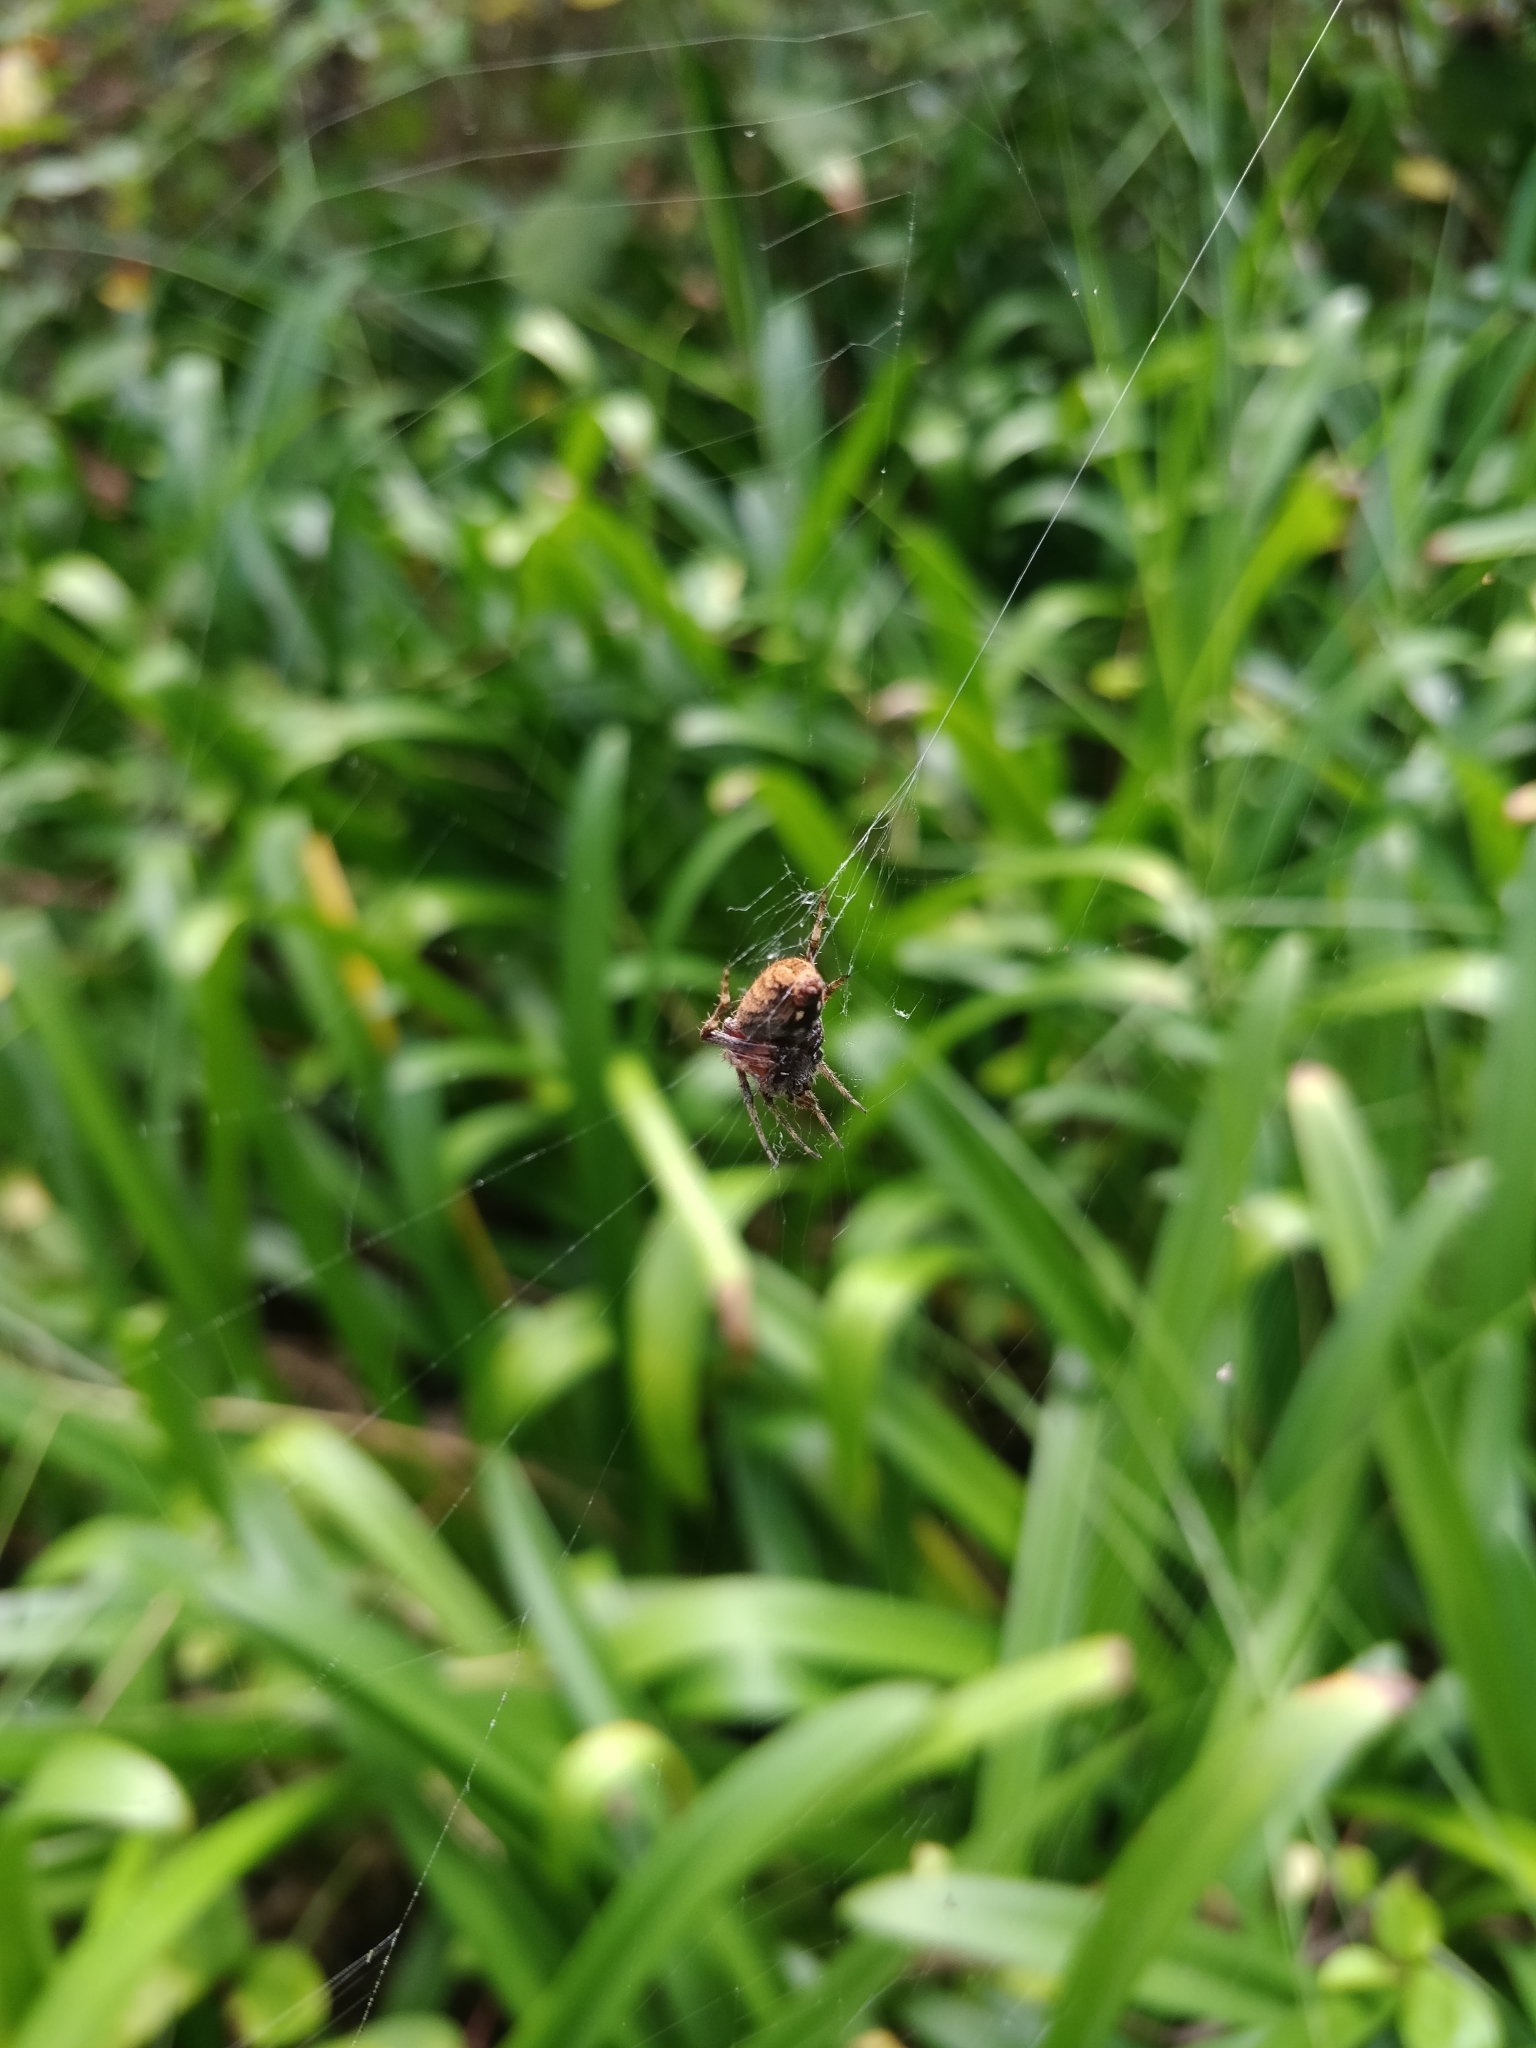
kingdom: Animalia
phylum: Arthropoda
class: Arachnida
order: Araneae
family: Araneidae
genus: Neoscona
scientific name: Neoscona crucifera
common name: Spotted orbweaver
